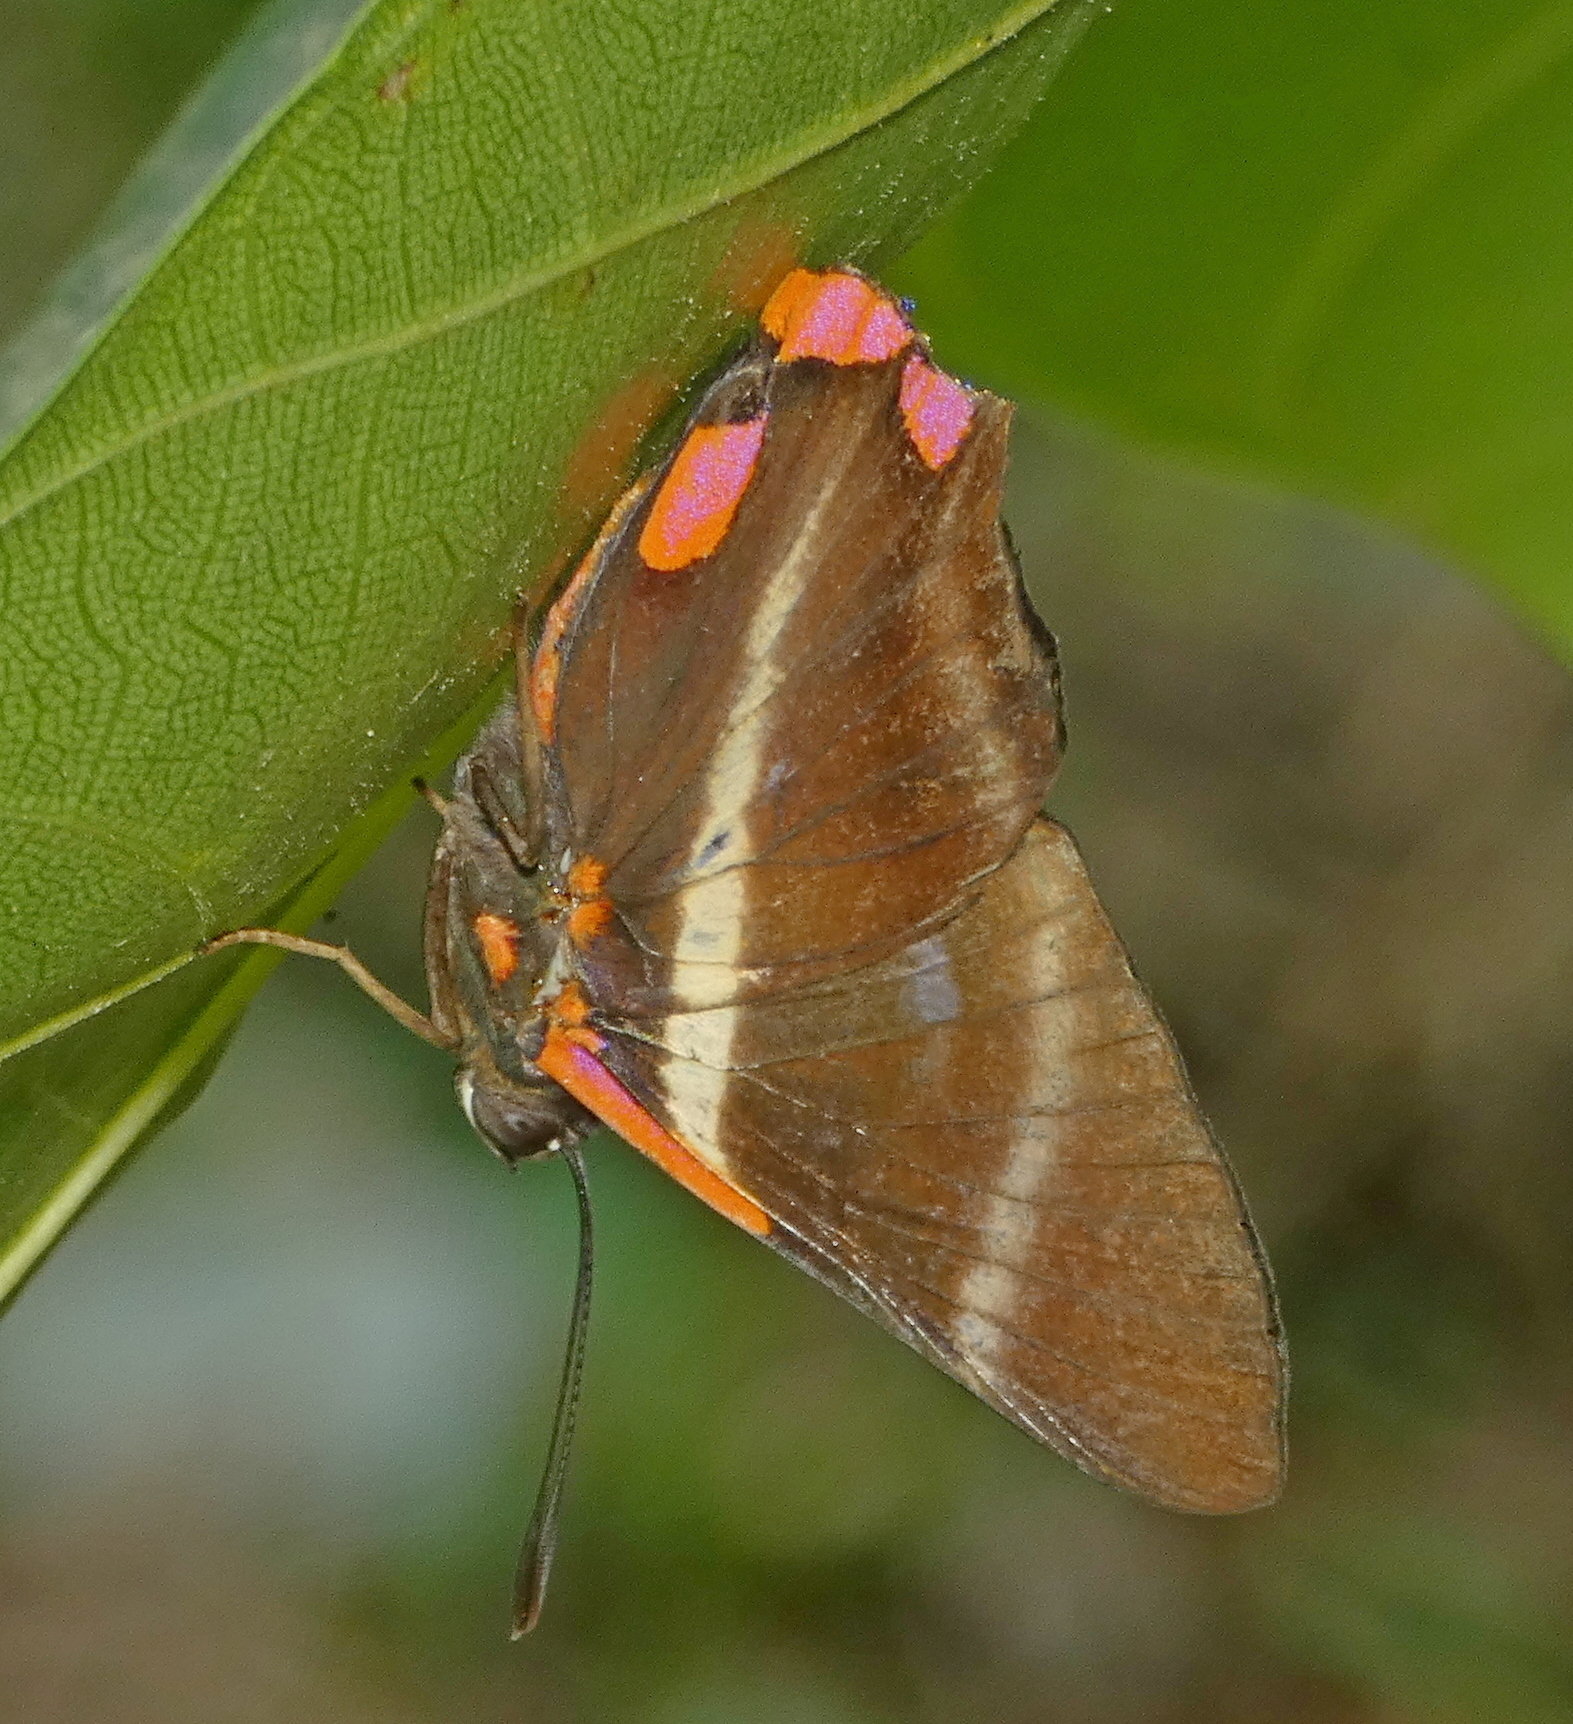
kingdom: Animalia
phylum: Arthropoda
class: Insecta
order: Lepidoptera
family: Riodinidae
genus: Rhetus
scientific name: Rhetus periander
